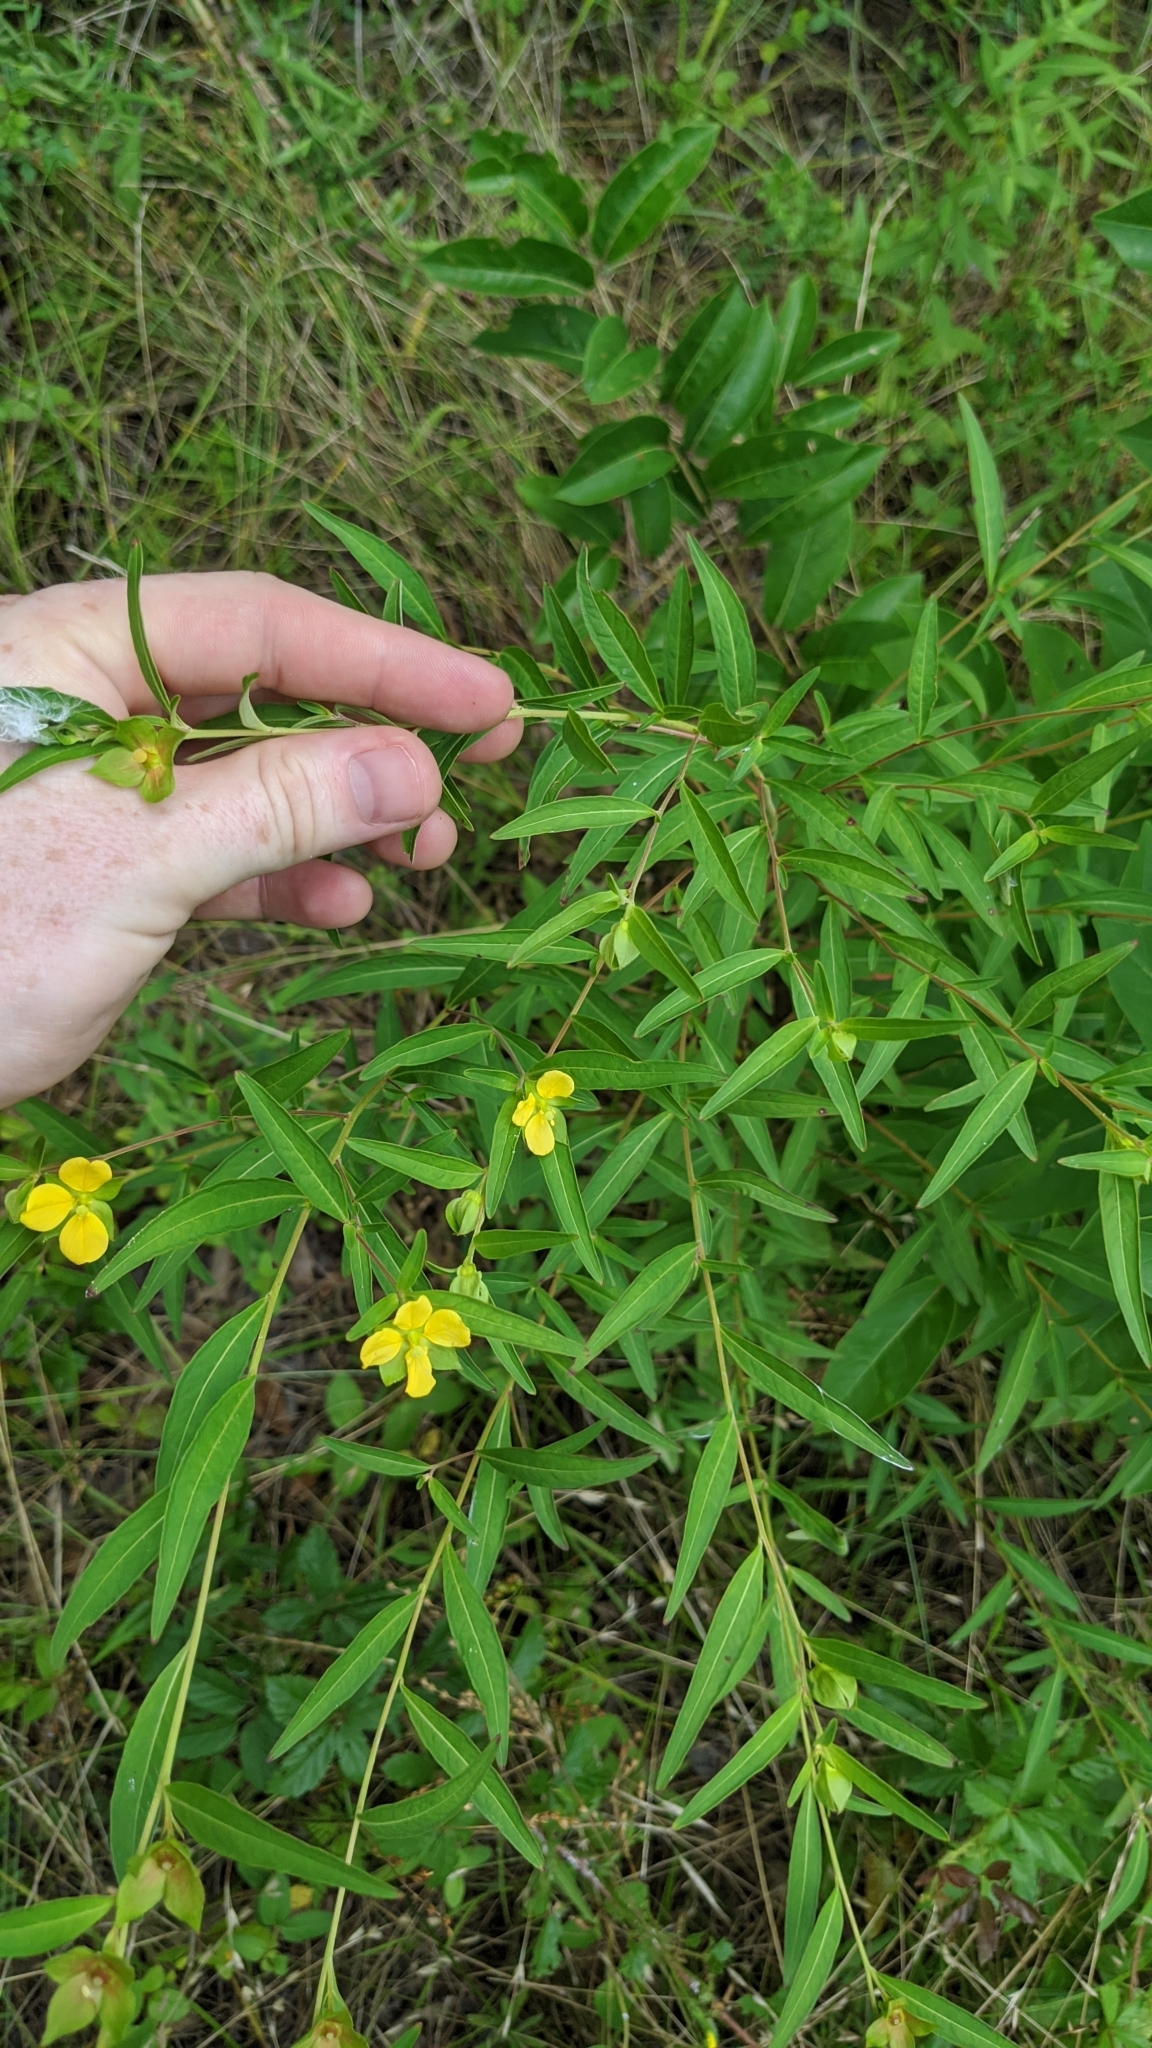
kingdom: Plantae
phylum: Tracheophyta
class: Magnoliopsida
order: Myrtales
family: Onagraceae
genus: Ludwigia
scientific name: Ludwigia alternifolia
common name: Rattlebox
